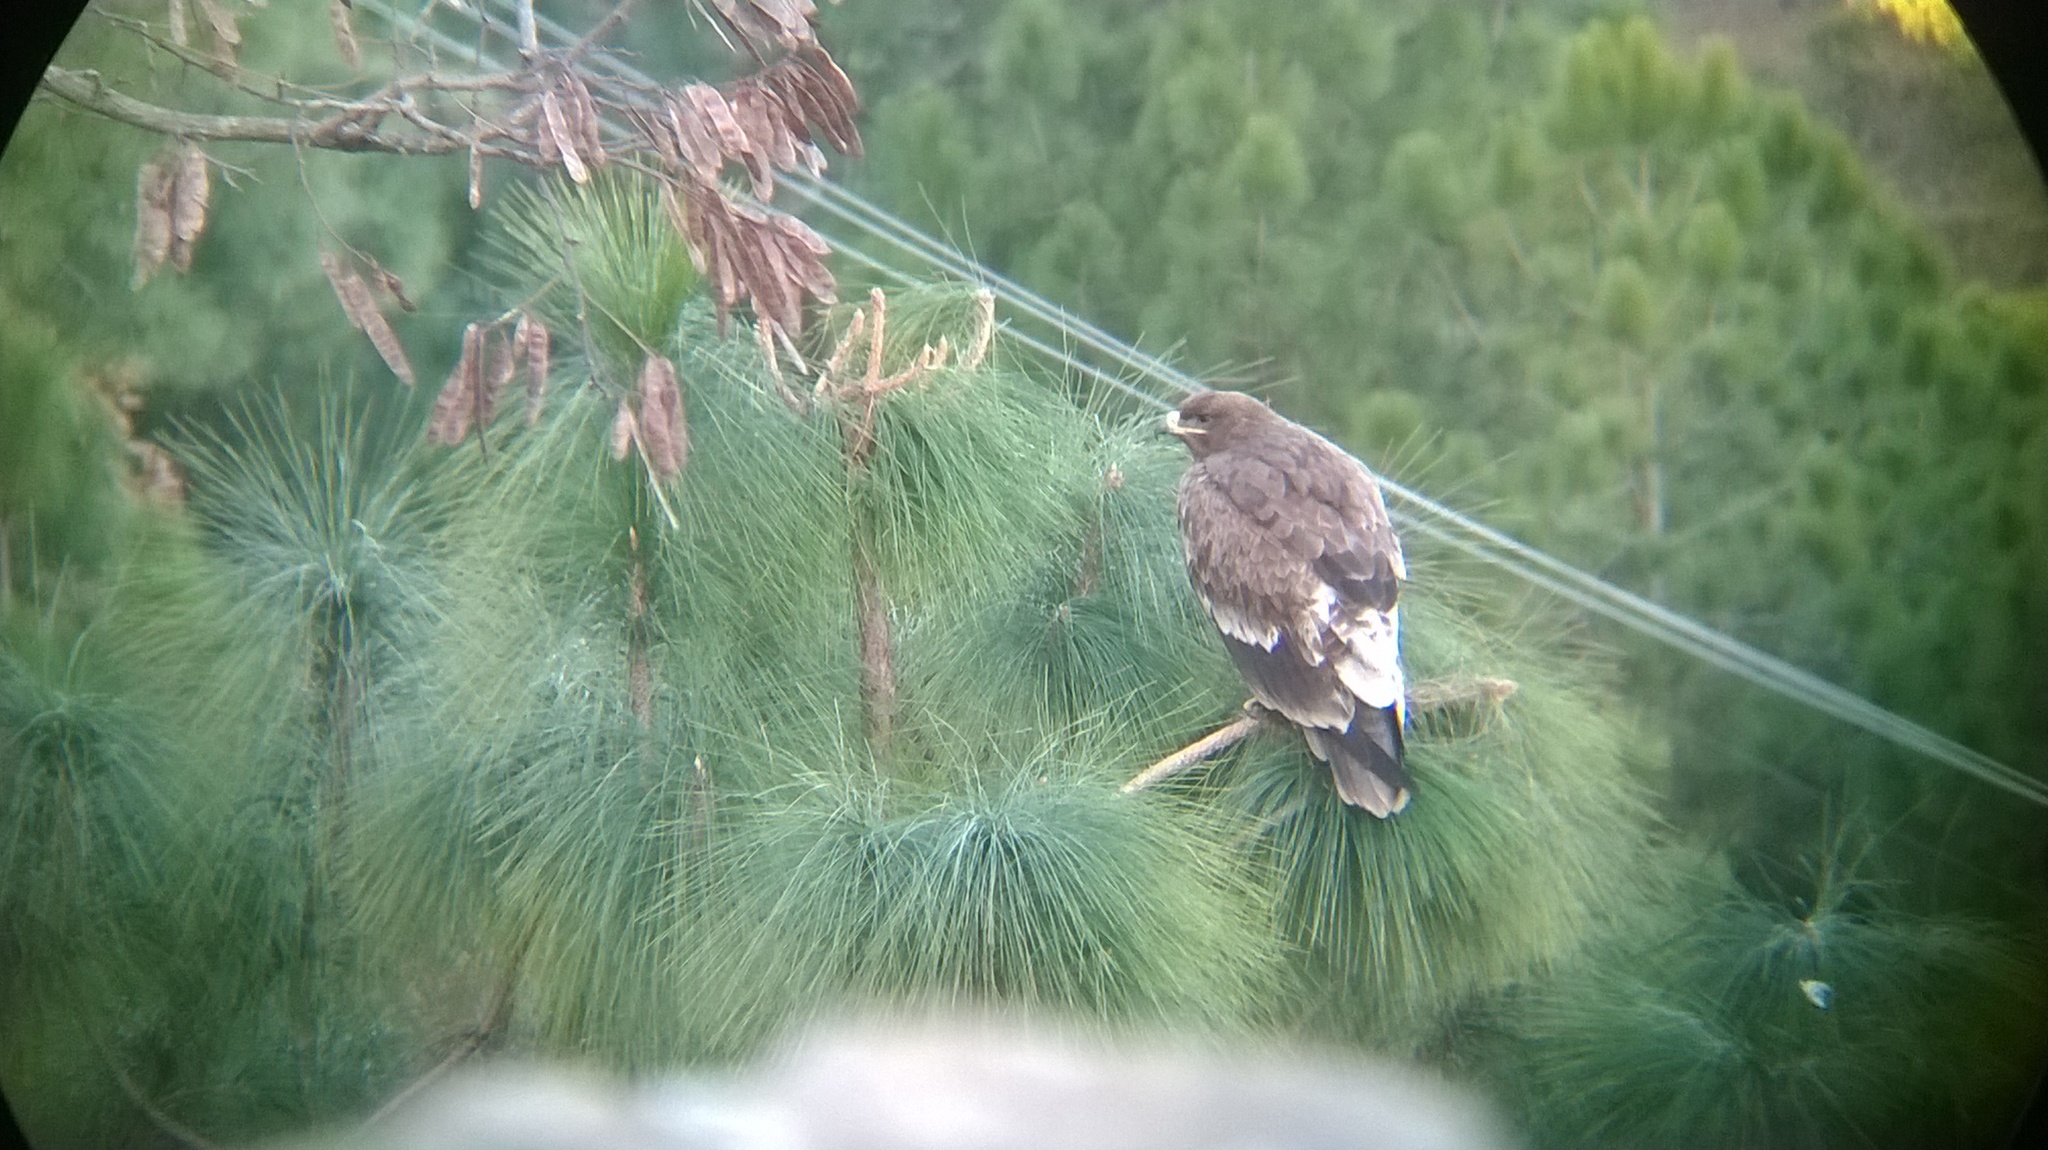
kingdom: Animalia
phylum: Chordata
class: Aves
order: Accipitriformes
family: Accipitridae
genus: Aquila
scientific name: Aquila nipalensis
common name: Steppe eagle
